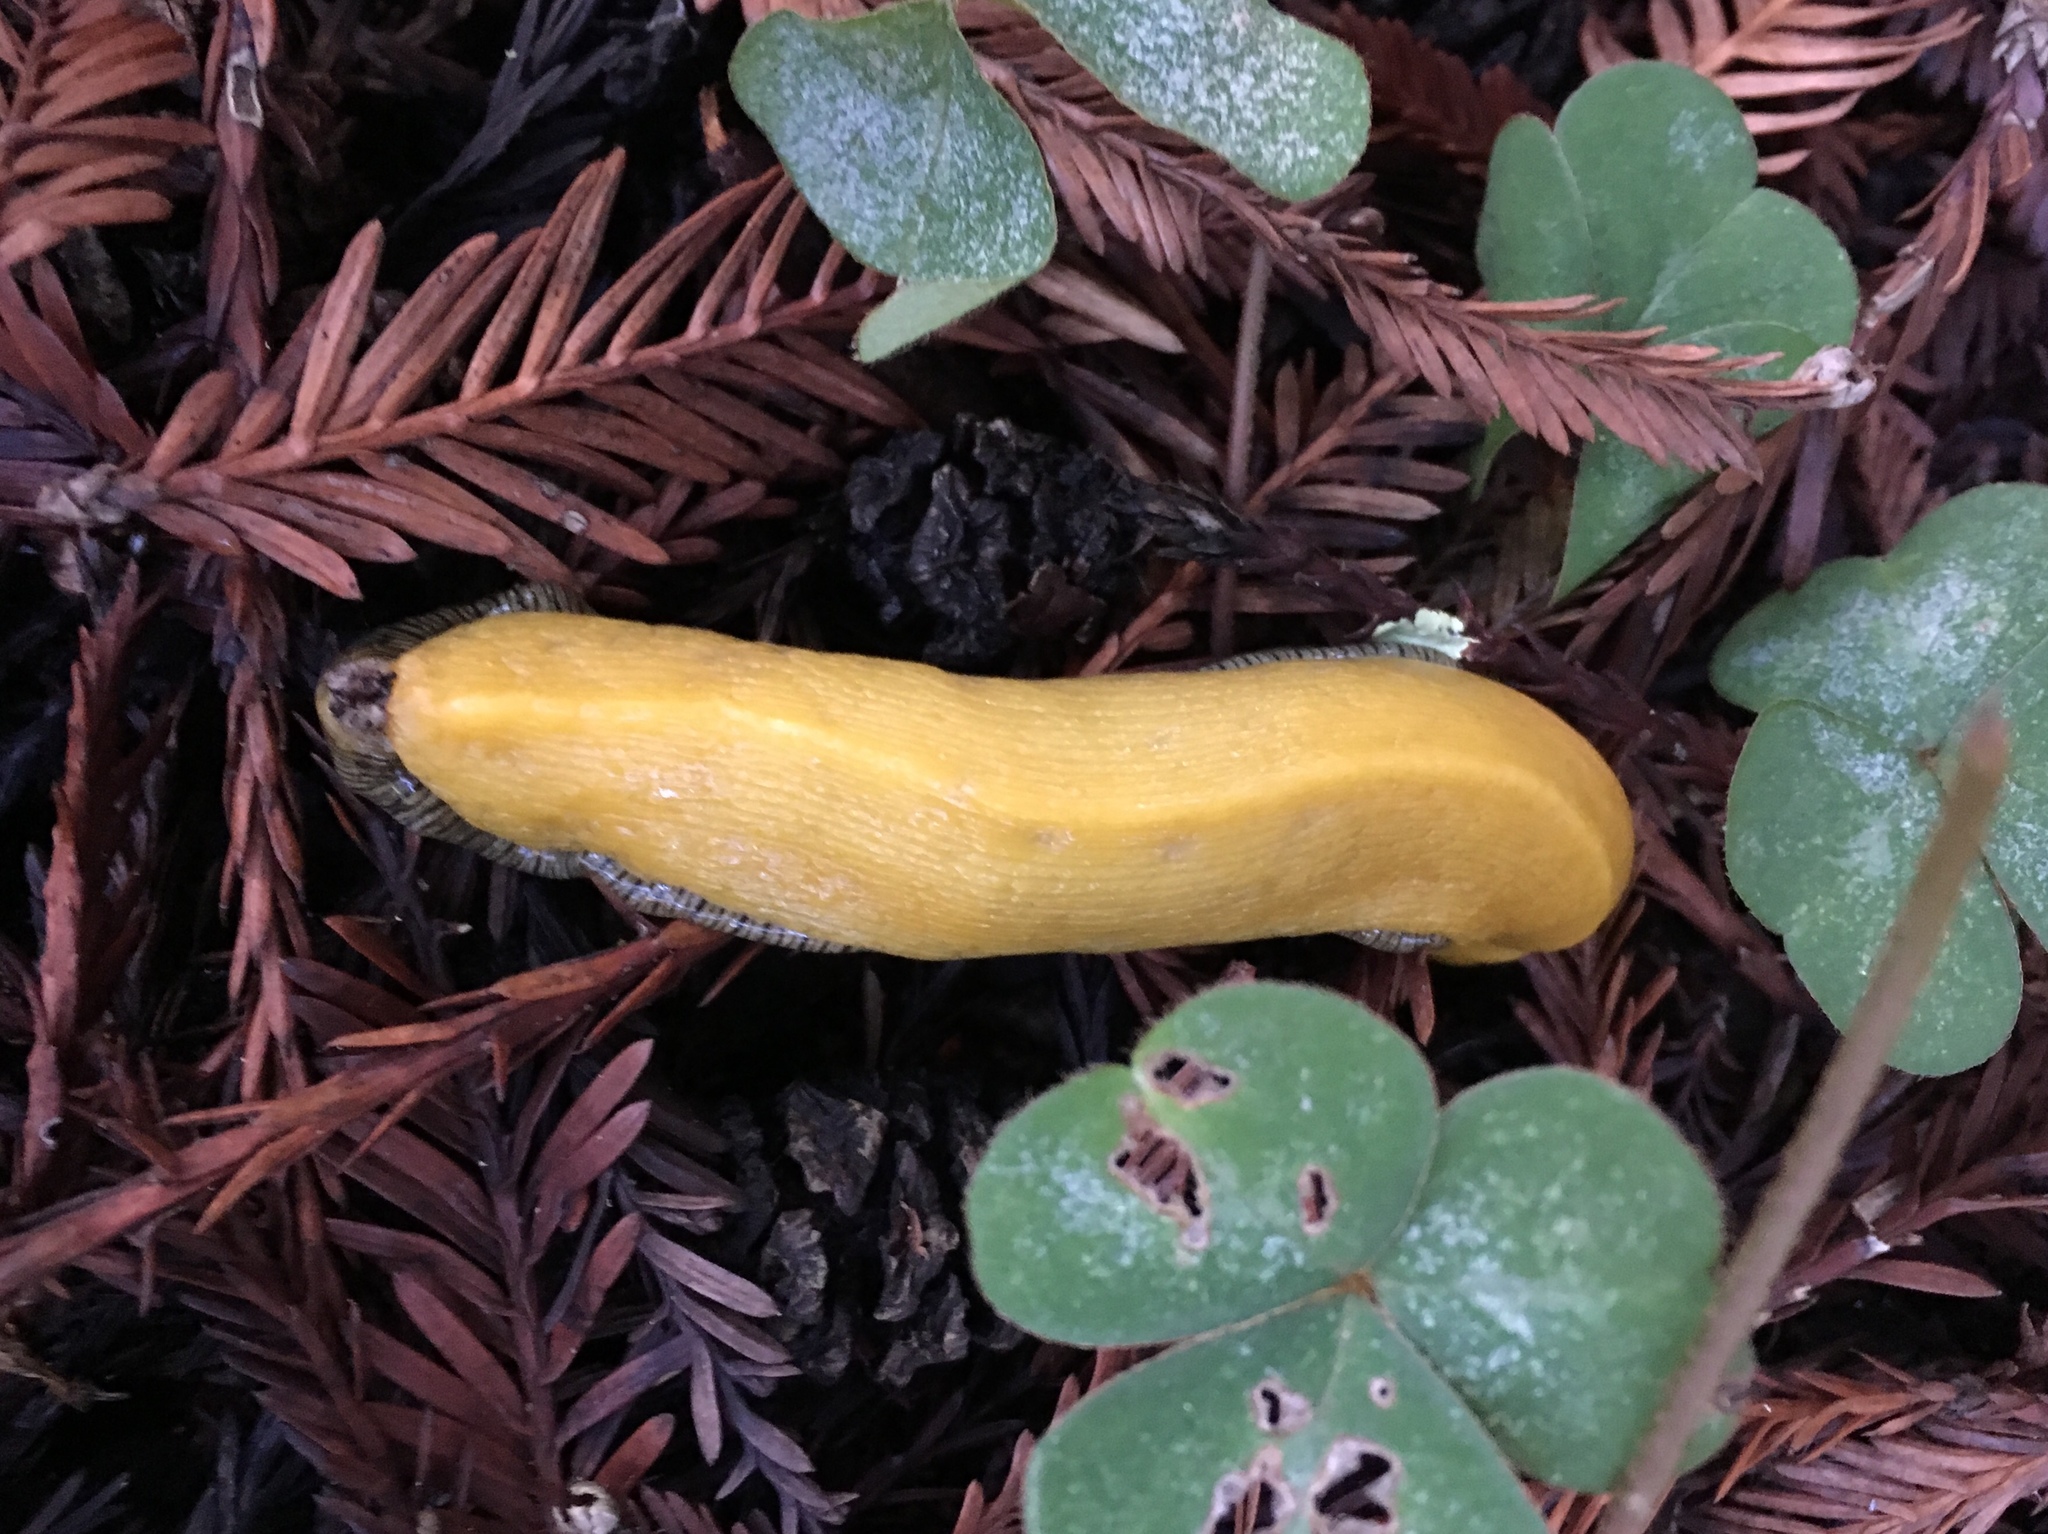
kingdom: Animalia
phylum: Mollusca
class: Gastropoda
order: Stylommatophora
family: Ariolimacidae
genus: Ariolimax
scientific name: Ariolimax dolichophallus
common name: Slender banana slug
